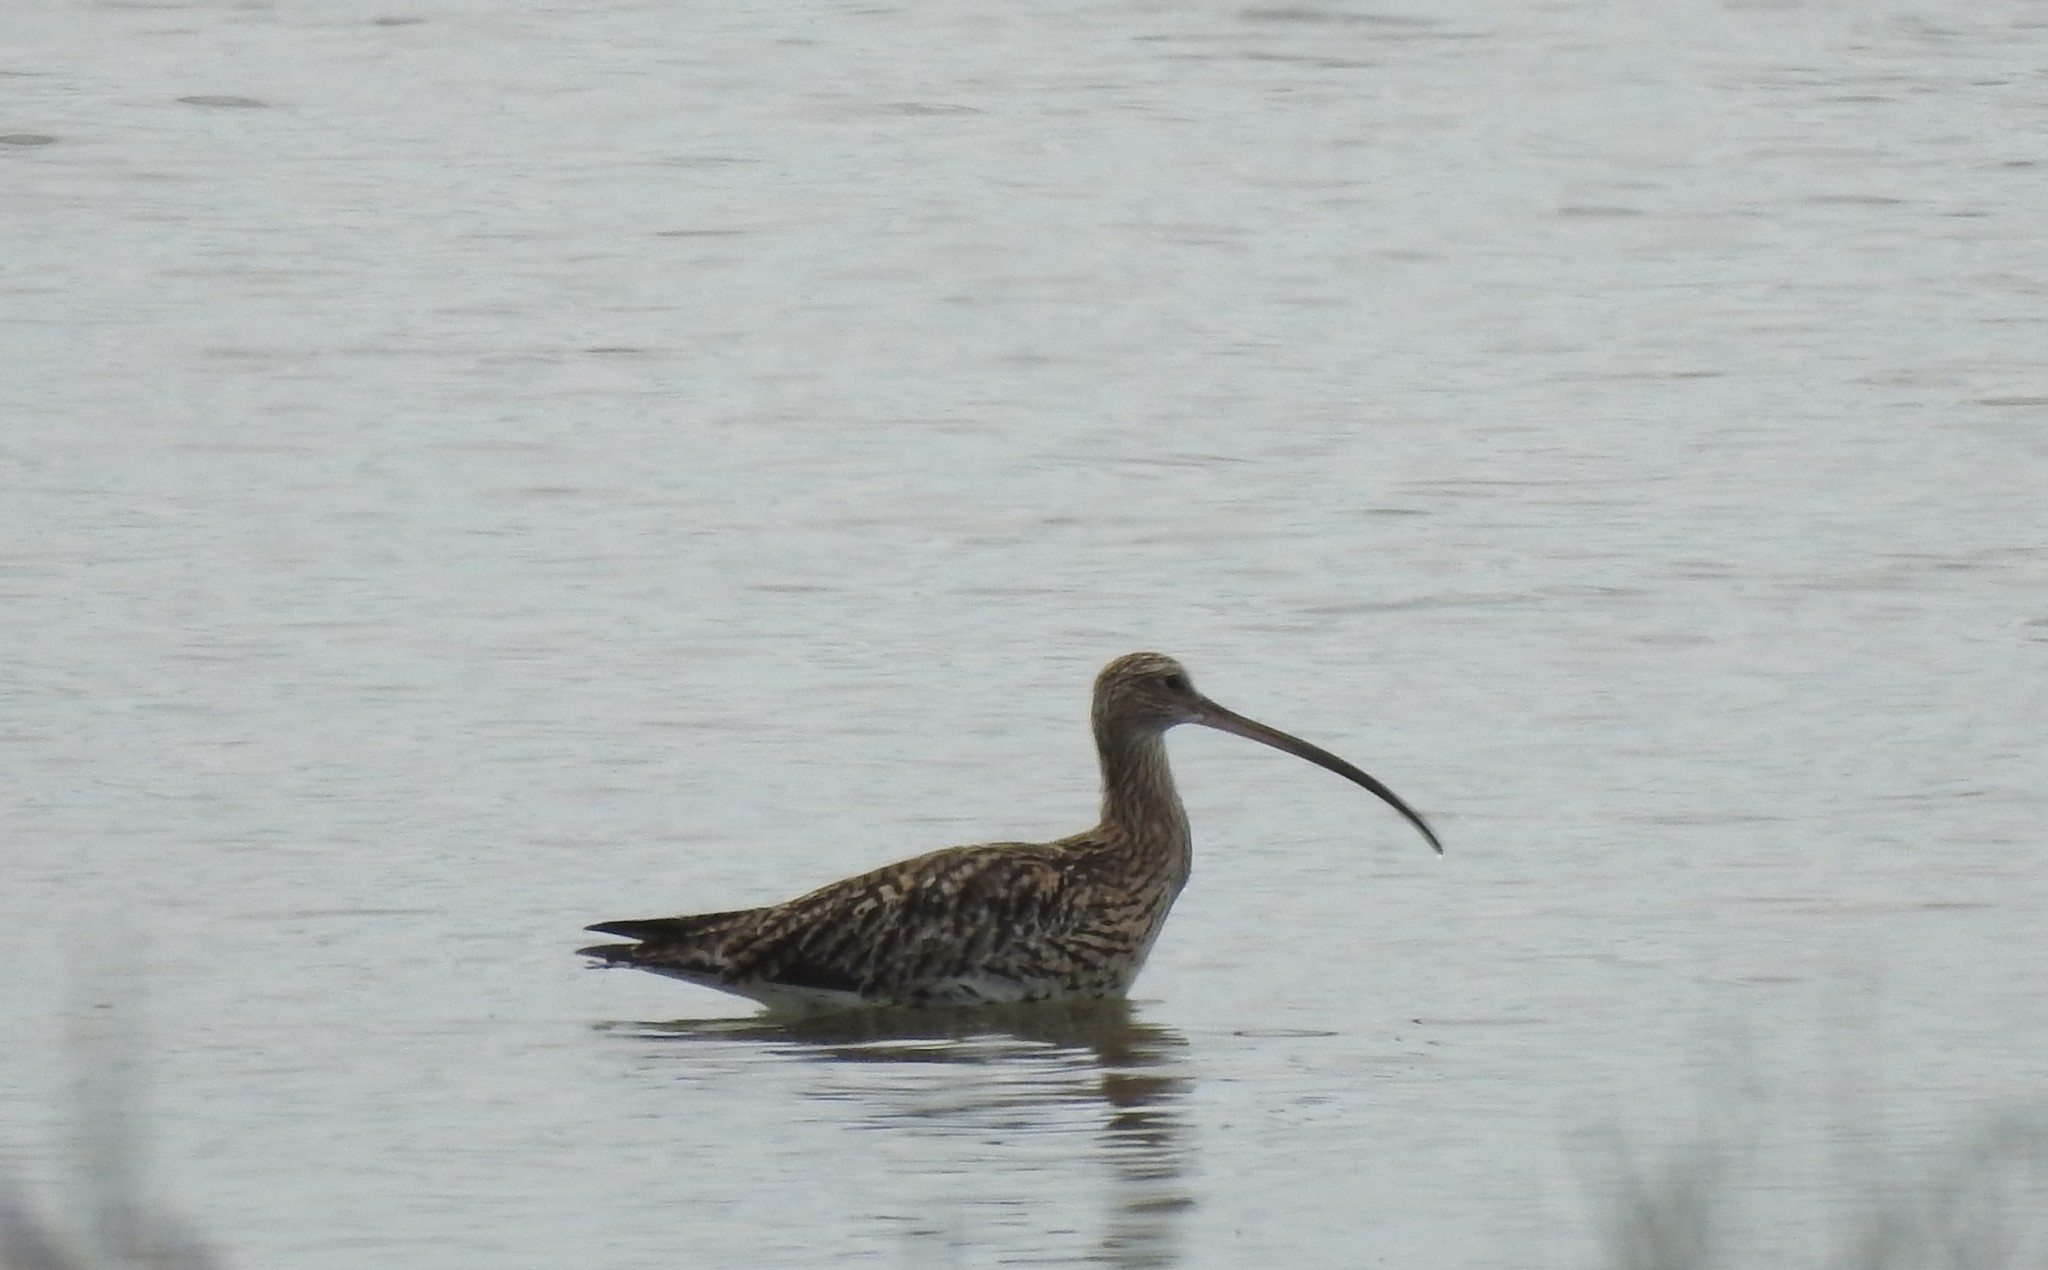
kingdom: Animalia
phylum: Chordata
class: Aves
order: Charadriiformes
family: Scolopacidae
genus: Numenius
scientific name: Numenius arquata
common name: Eurasian curlew
